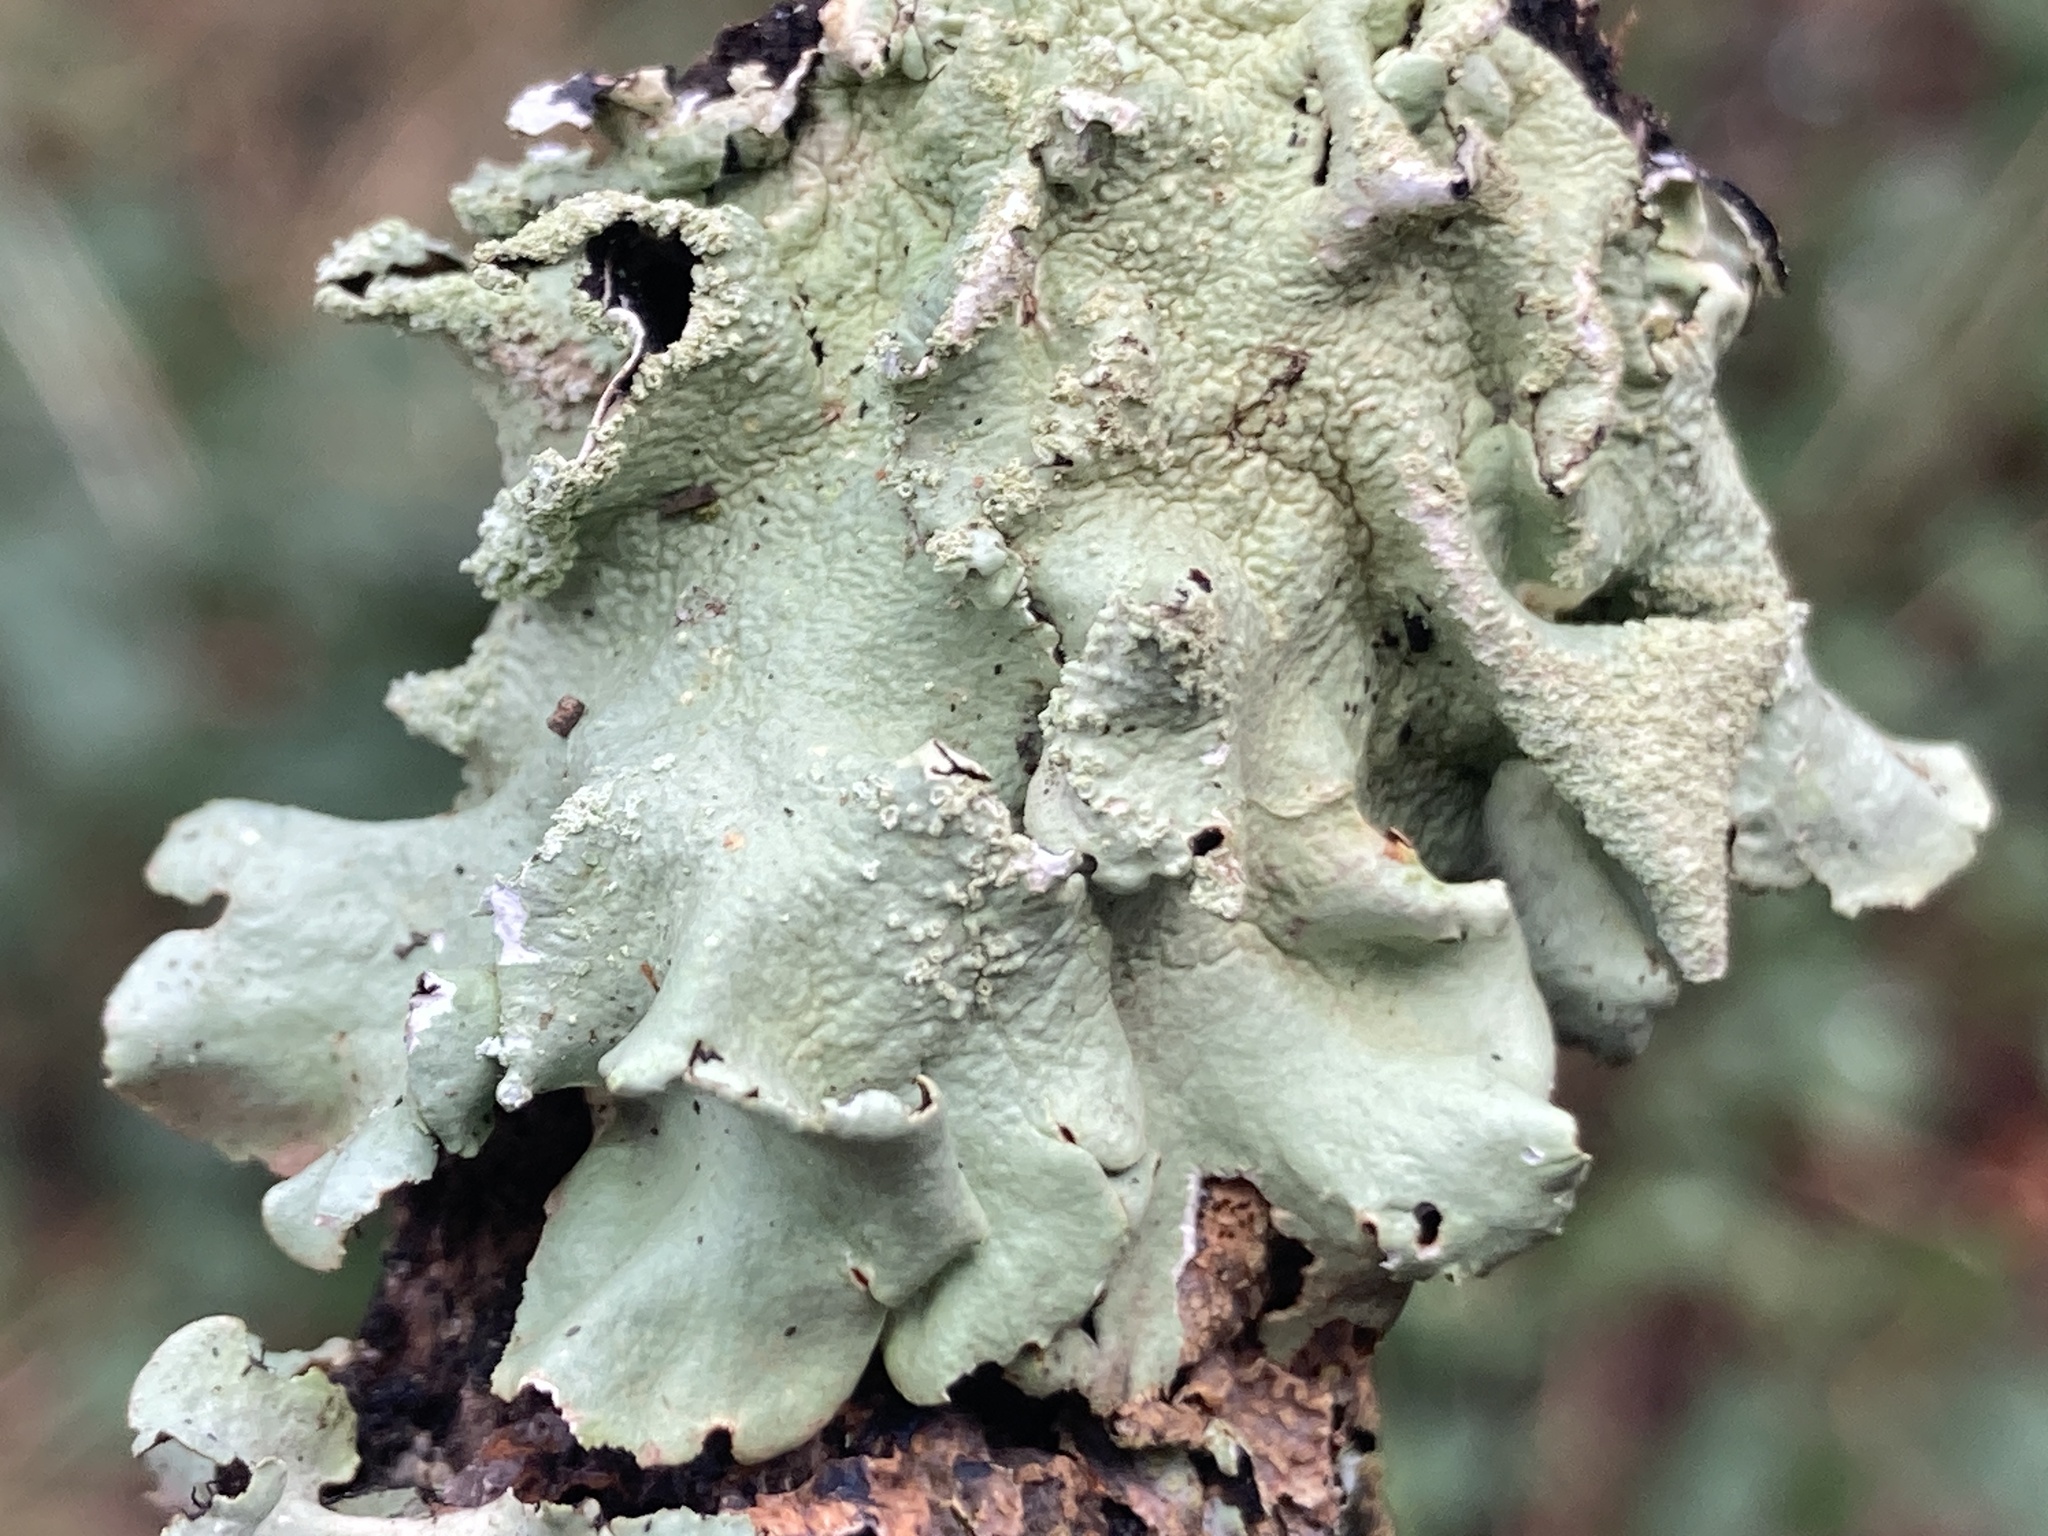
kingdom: Fungi
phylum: Ascomycota
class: Lecanoromycetes
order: Lecanorales
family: Parmeliaceae
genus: Flavoparmelia
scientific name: Flavoparmelia caperata
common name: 40-mile per hour lichen
